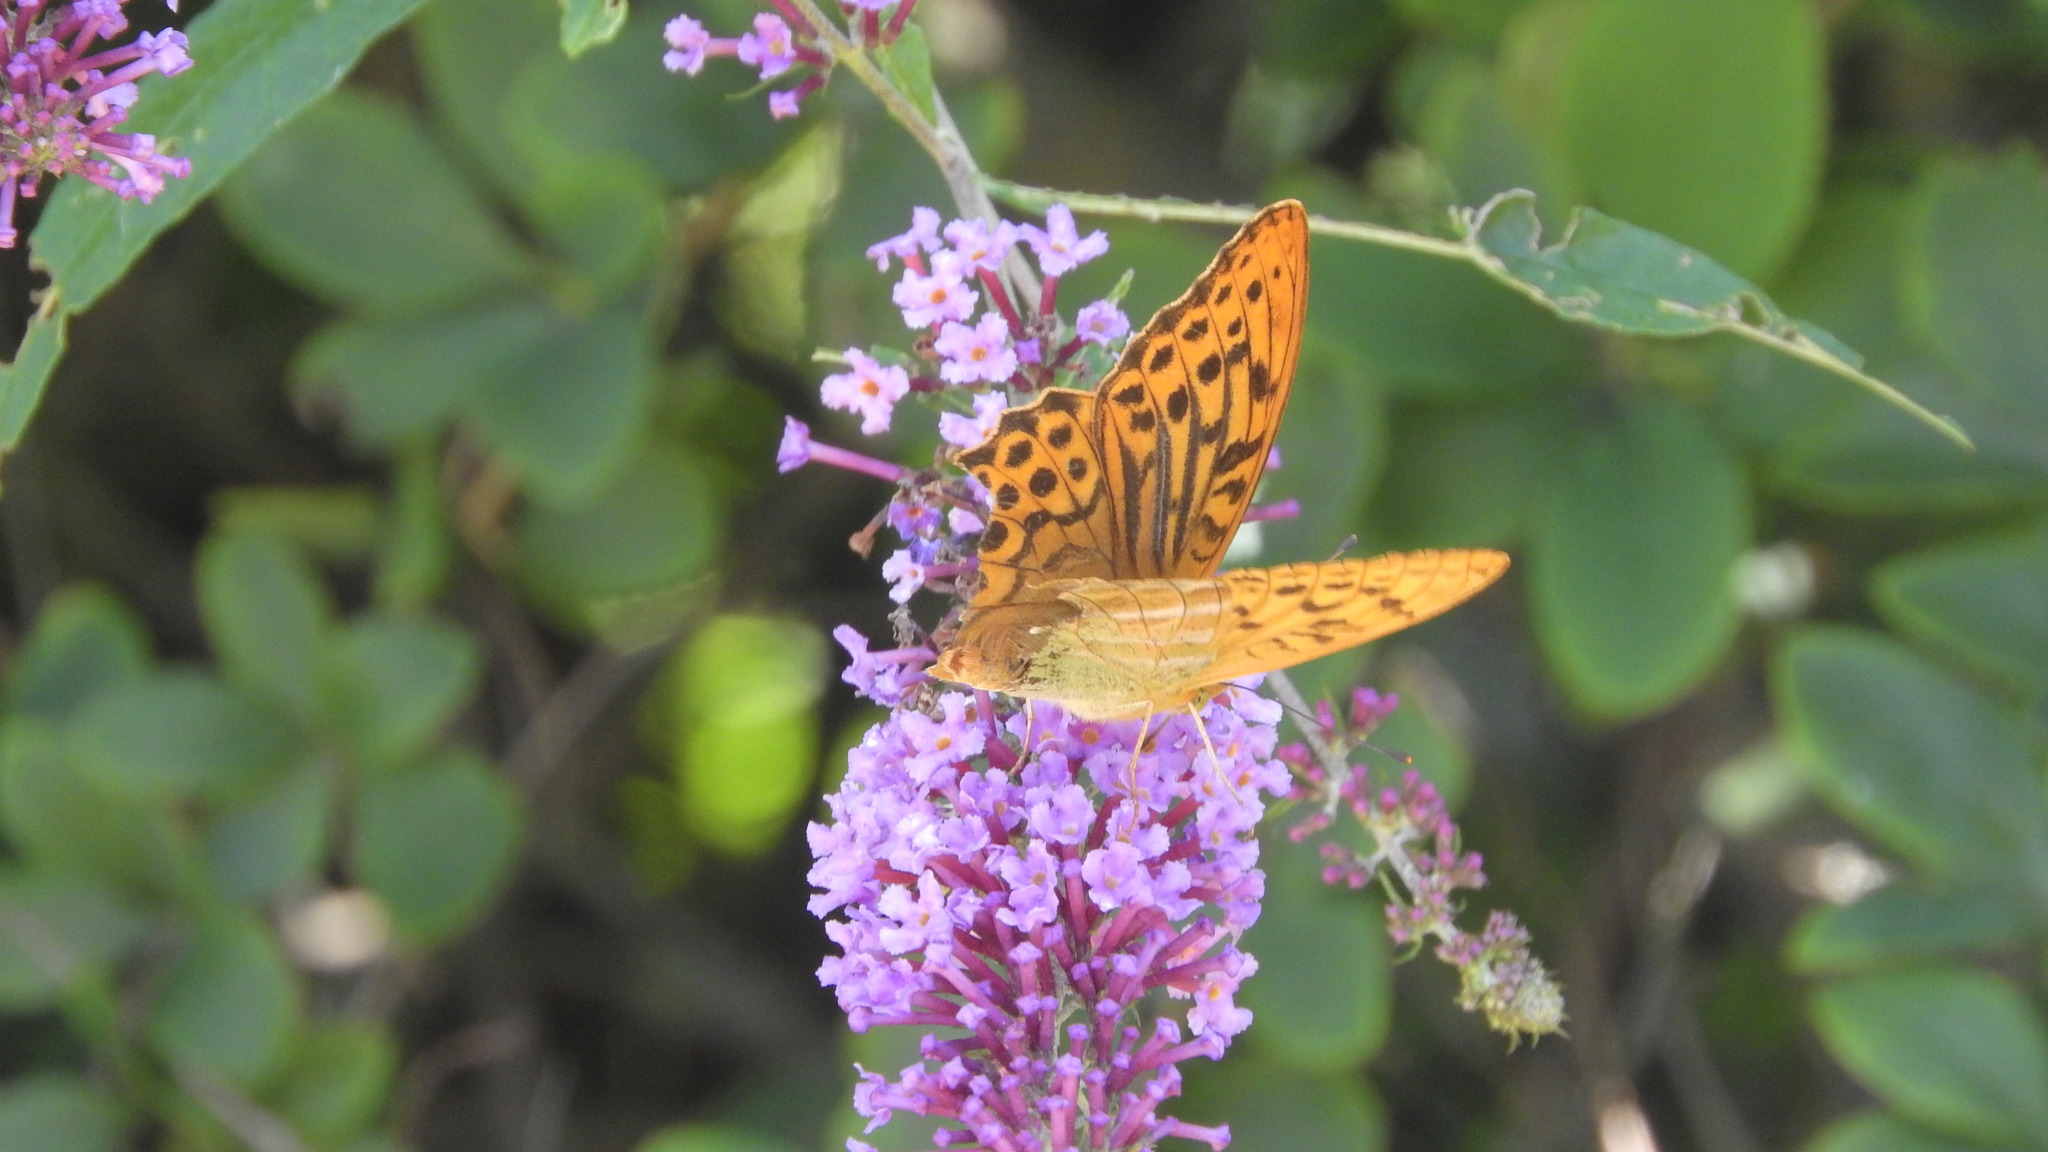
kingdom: Animalia
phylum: Arthropoda
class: Insecta
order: Lepidoptera
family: Nymphalidae
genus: Argynnis
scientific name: Argynnis paphia
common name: Silver-washed fritillary
